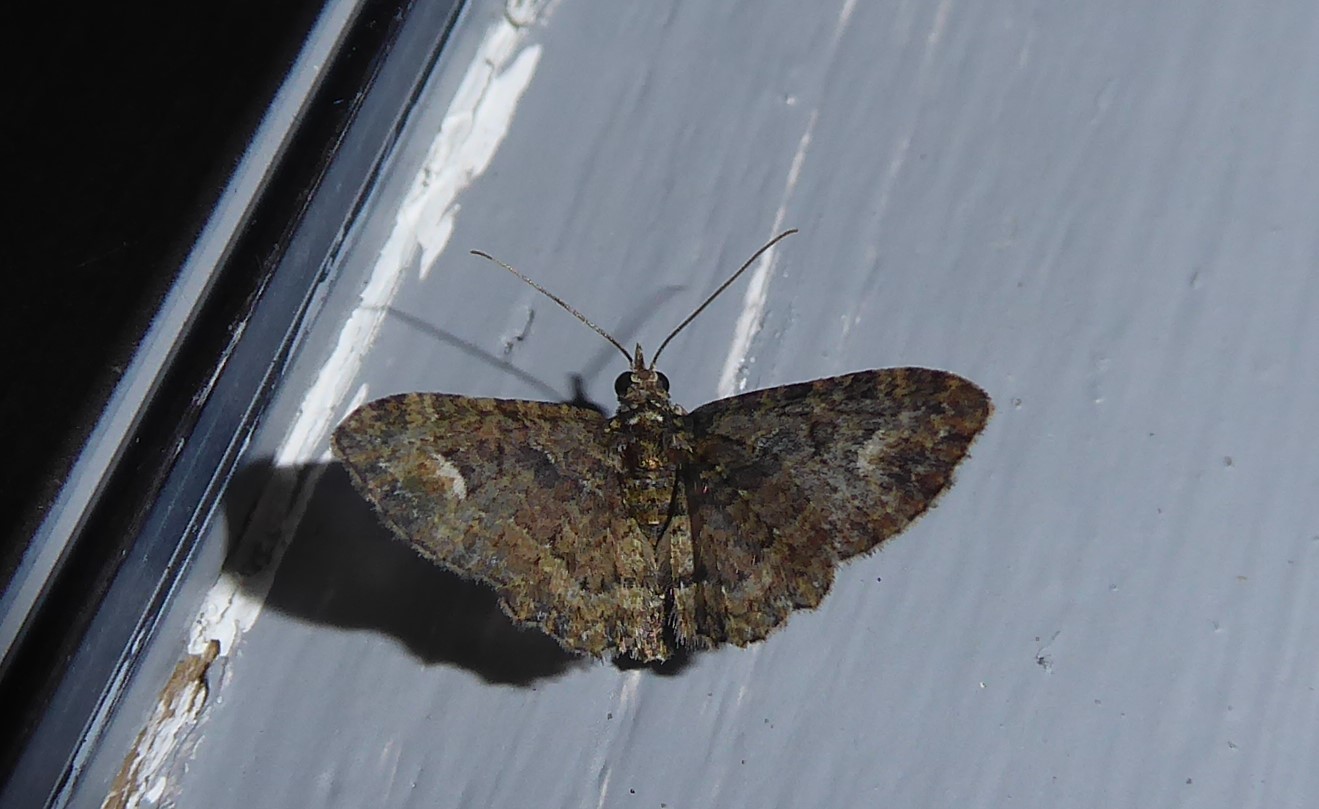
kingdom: Animalia
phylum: Arthropoda
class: Insecta
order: Lepidoptera
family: Geometridae
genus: Pasiphilodes
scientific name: Pasiphilodes testulata
